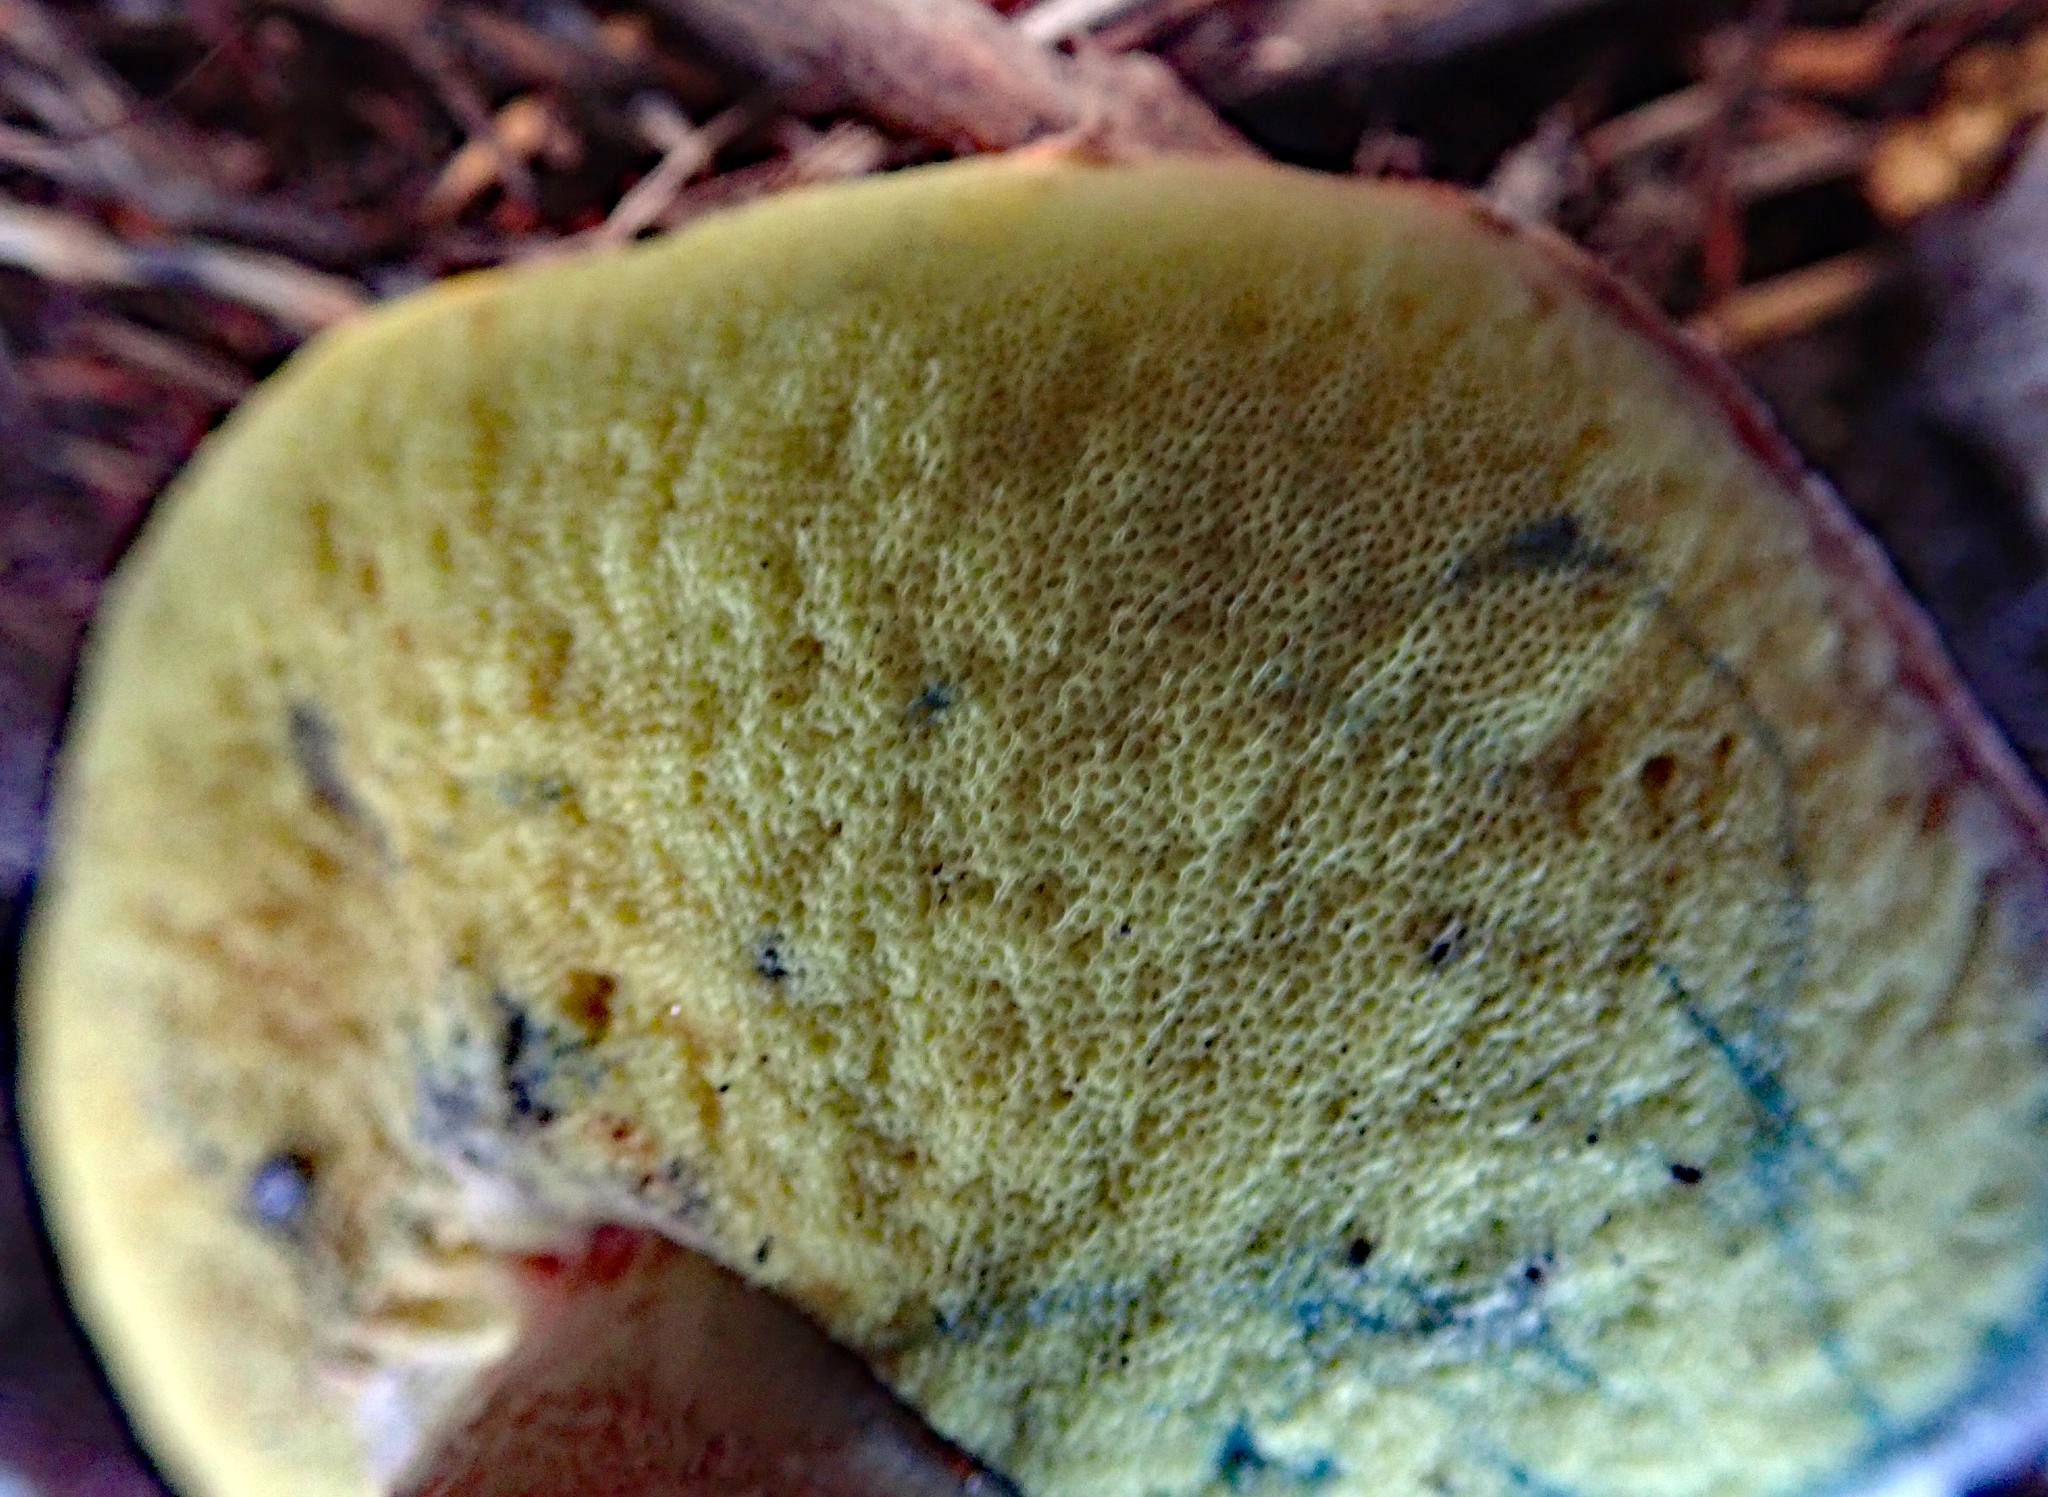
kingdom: Fungi
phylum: Basidiomycota
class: Agaricomycetes
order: Boletales
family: Boletaceae
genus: Xerocomus
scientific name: Xerocomus leptospermi
